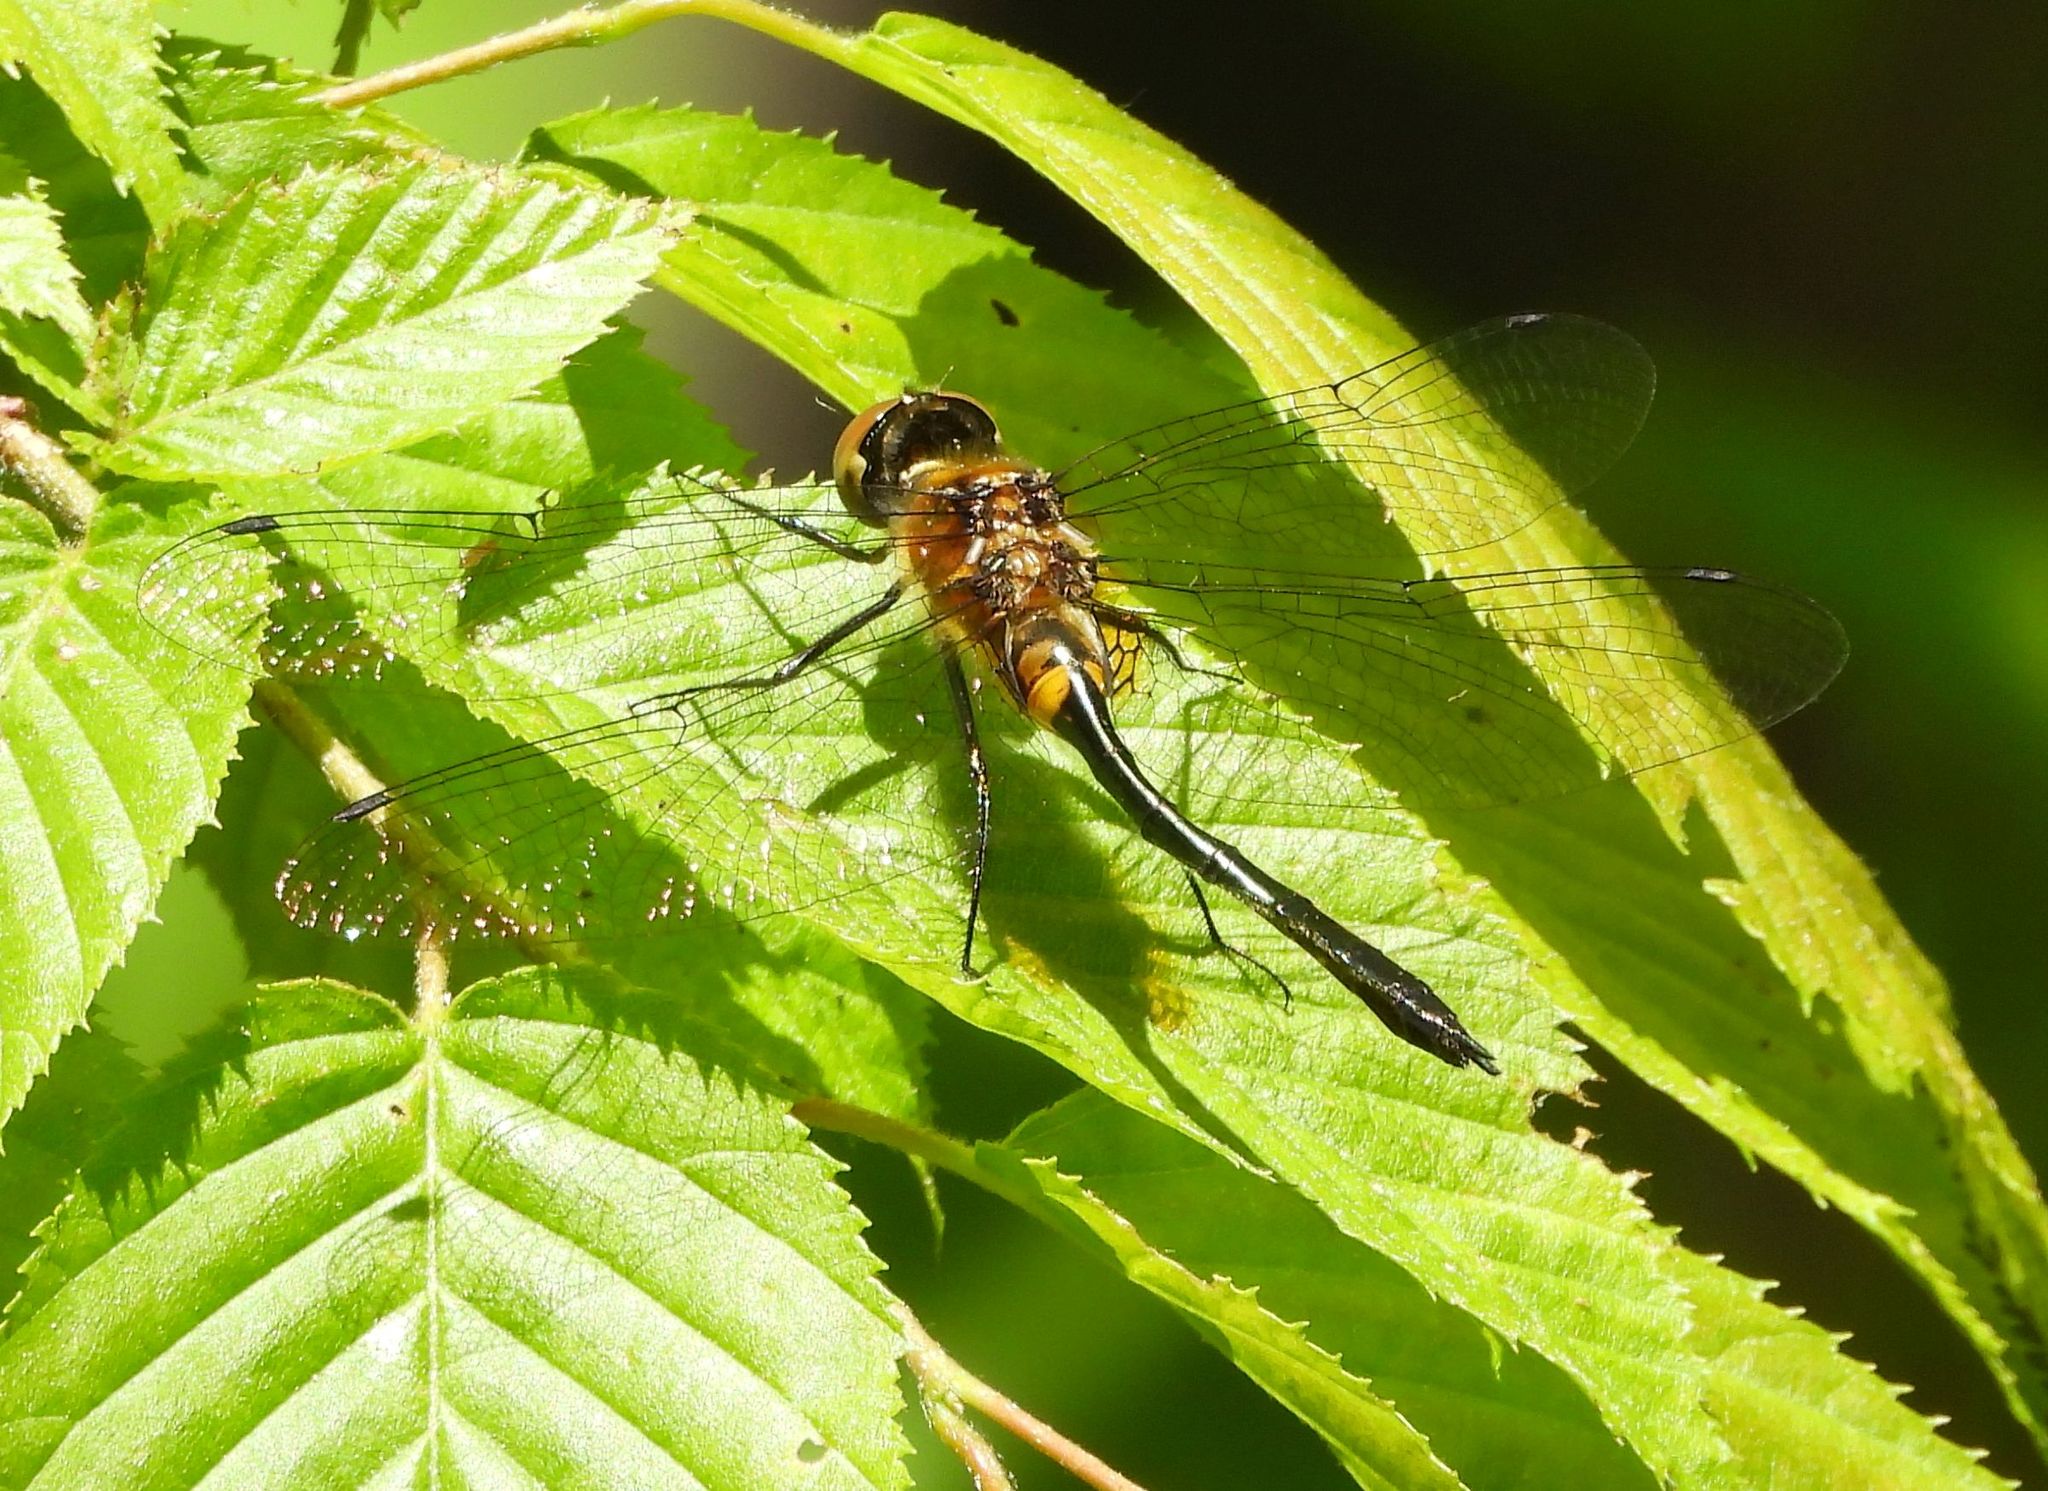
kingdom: Animalia
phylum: Arthropoda
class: Insecta
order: Odonata
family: Corduliidae
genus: Dorocordulia
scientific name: Dorocordulia libera
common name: Racket-tailed emerald
